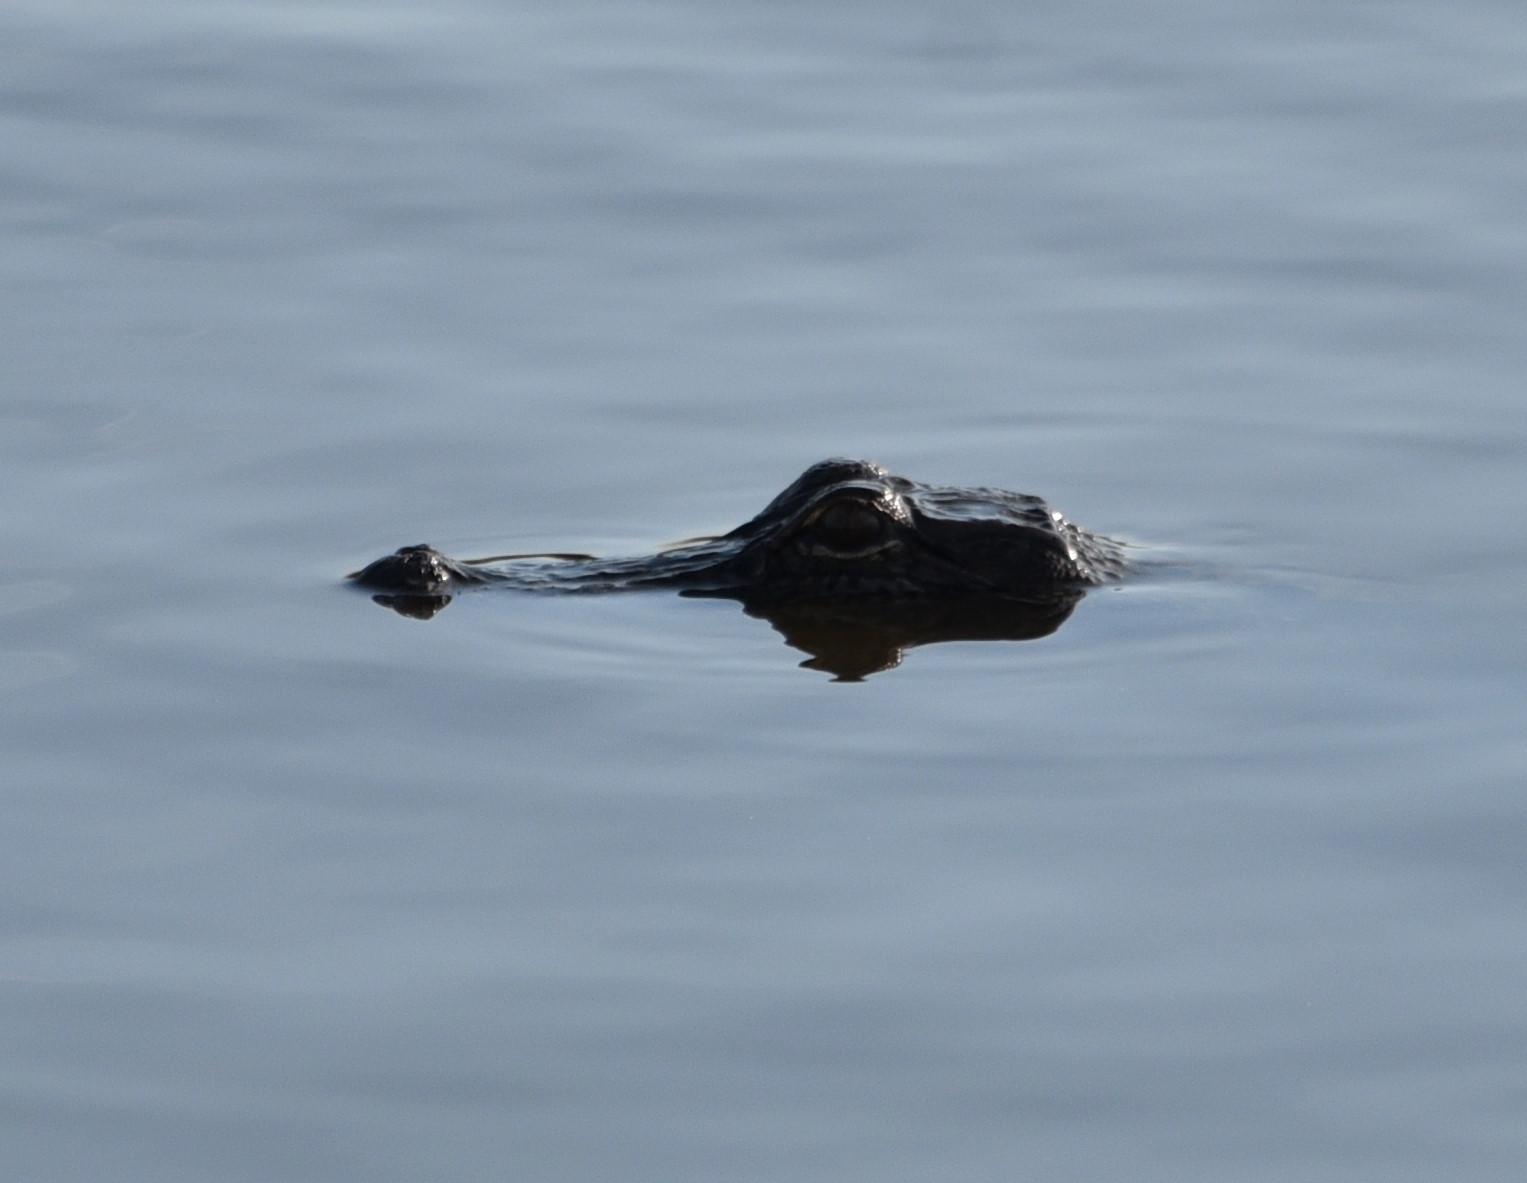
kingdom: Animalia
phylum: Chordata
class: Crocodylia
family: Alligatoridae
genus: Alligator
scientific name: Alligator mississippiensis
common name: American alligator
